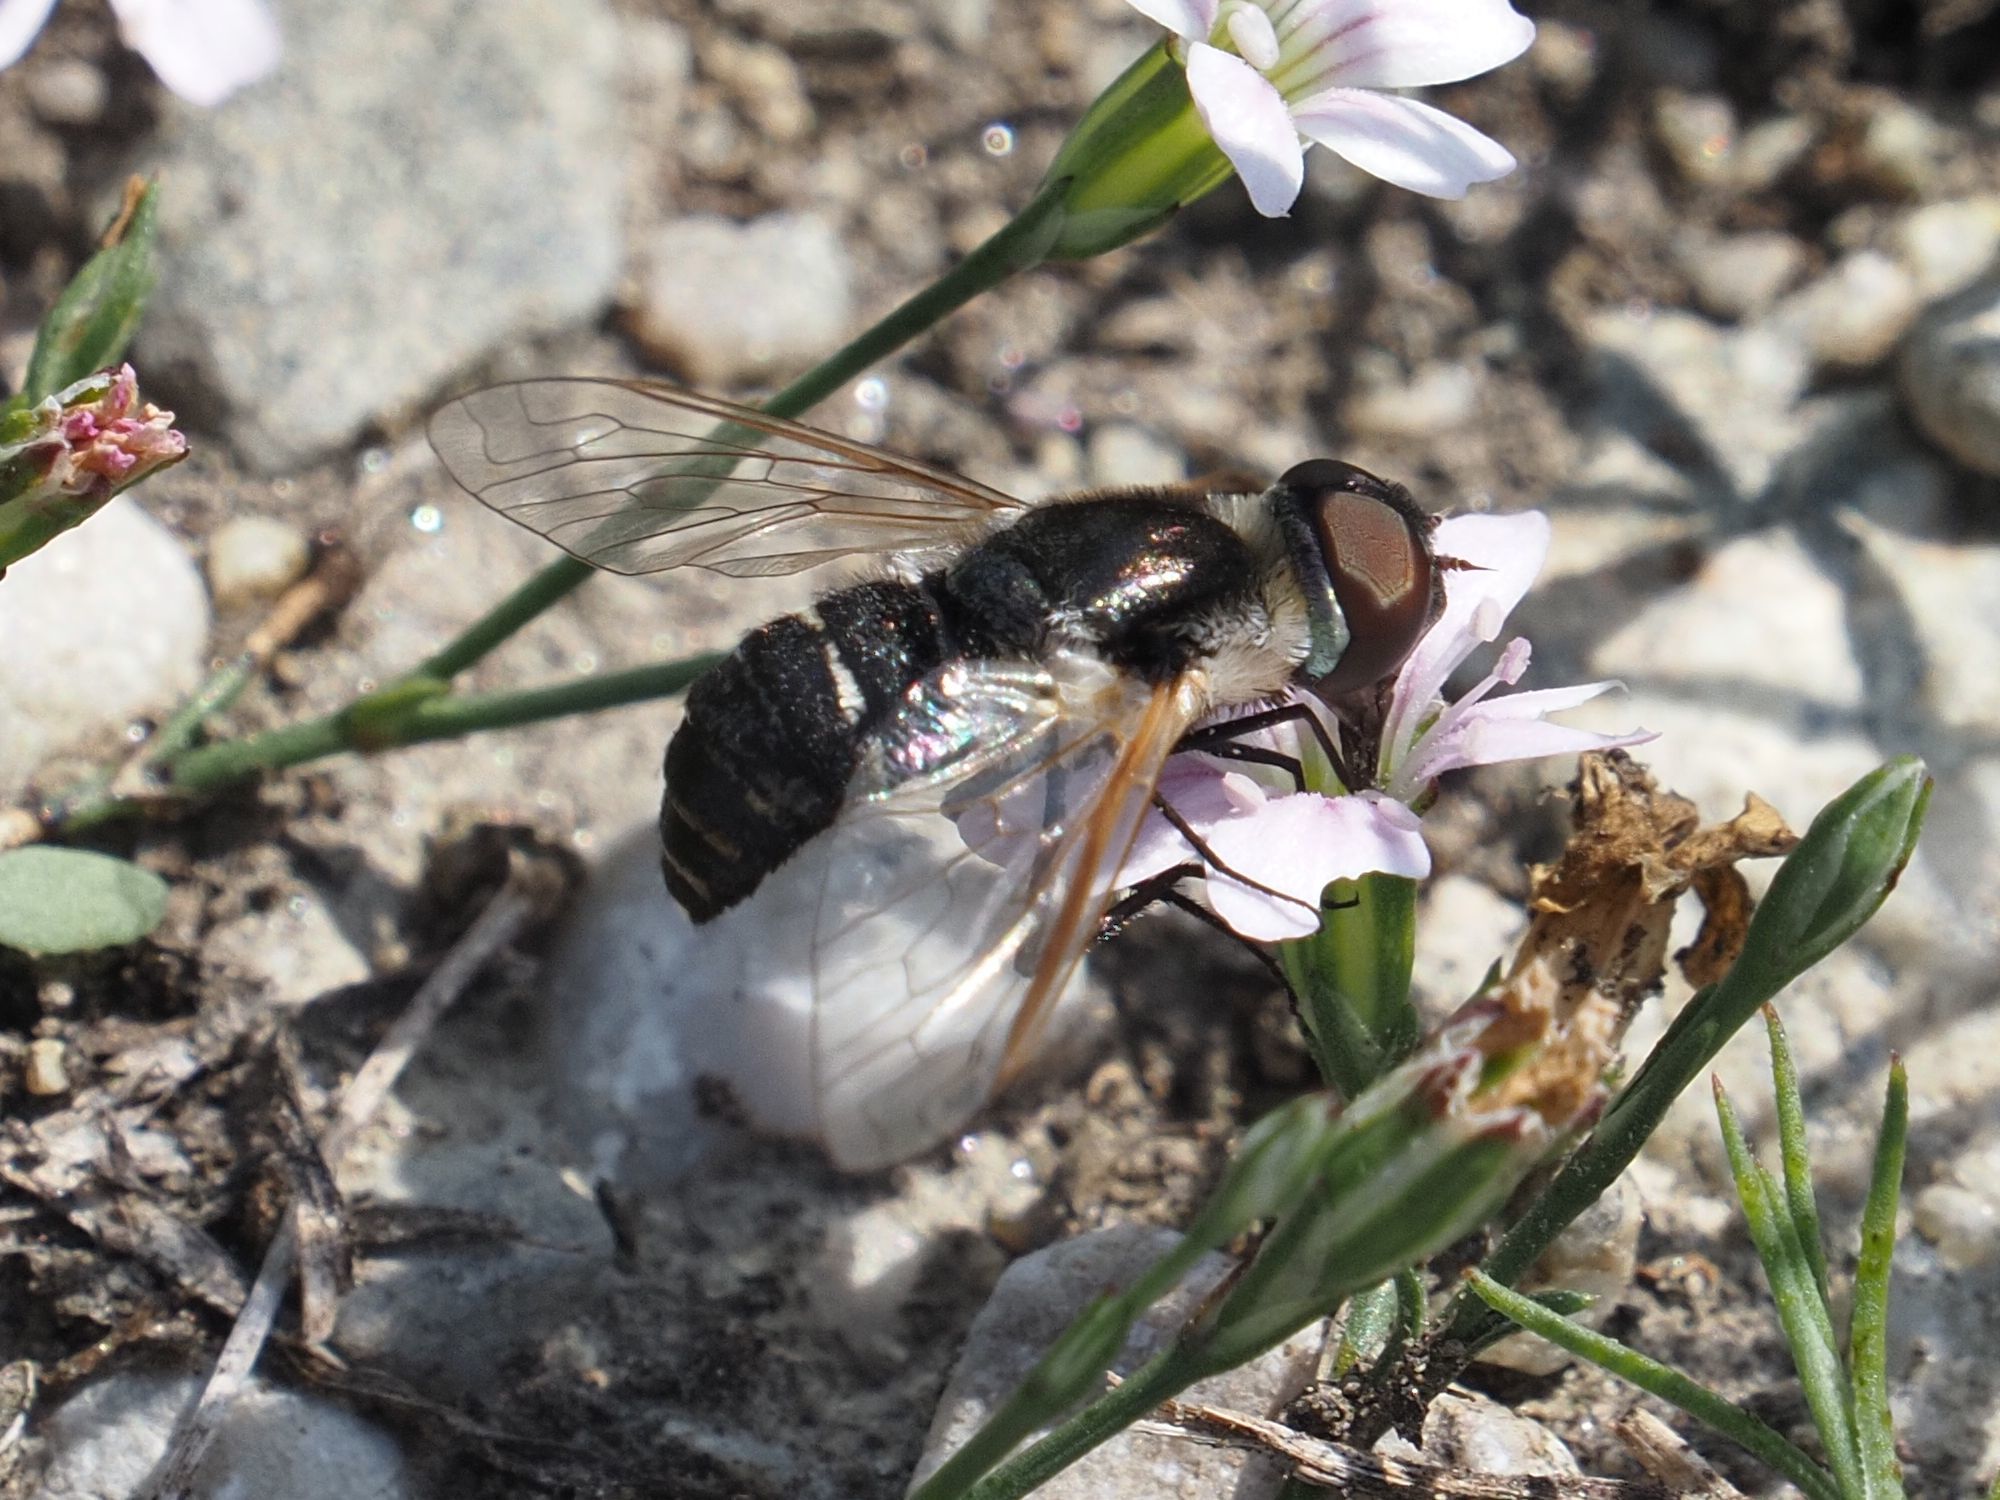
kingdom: Animalia
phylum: Arthropoda
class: Insecta
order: Diptera
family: Bombyliidae
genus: Micomitra
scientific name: Micomitra stupida
